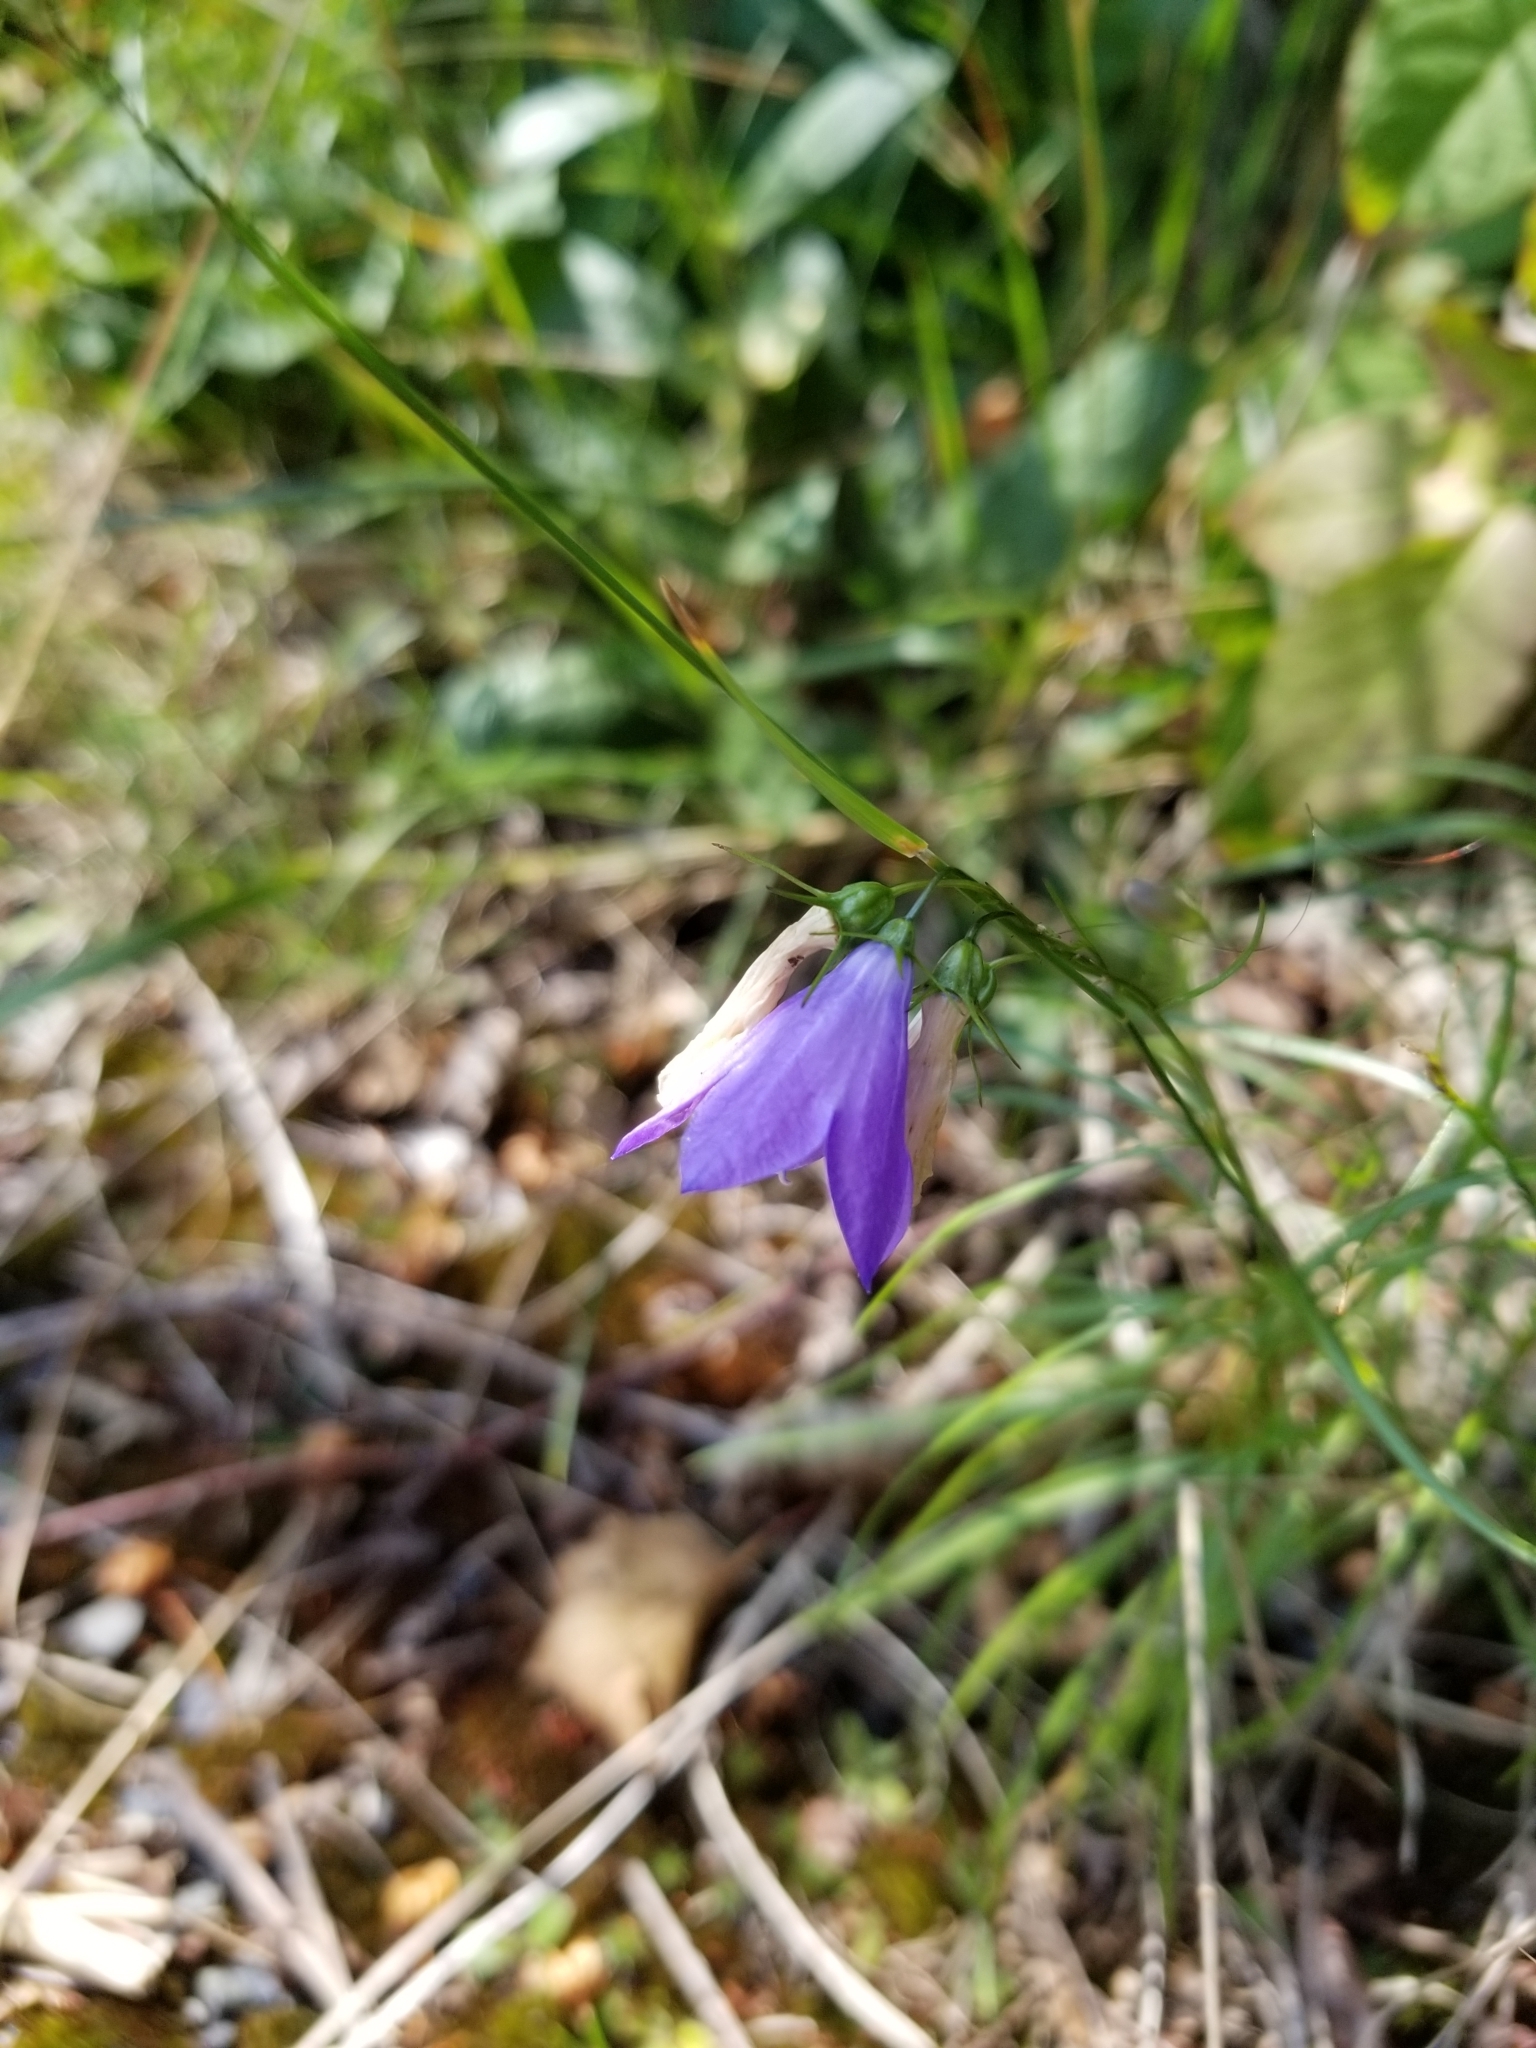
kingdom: Plantae
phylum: Tracheophyta
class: Magnoliopsida
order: Asterales
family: Campanulaceae
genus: Campanula
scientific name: Campanula intercedens
